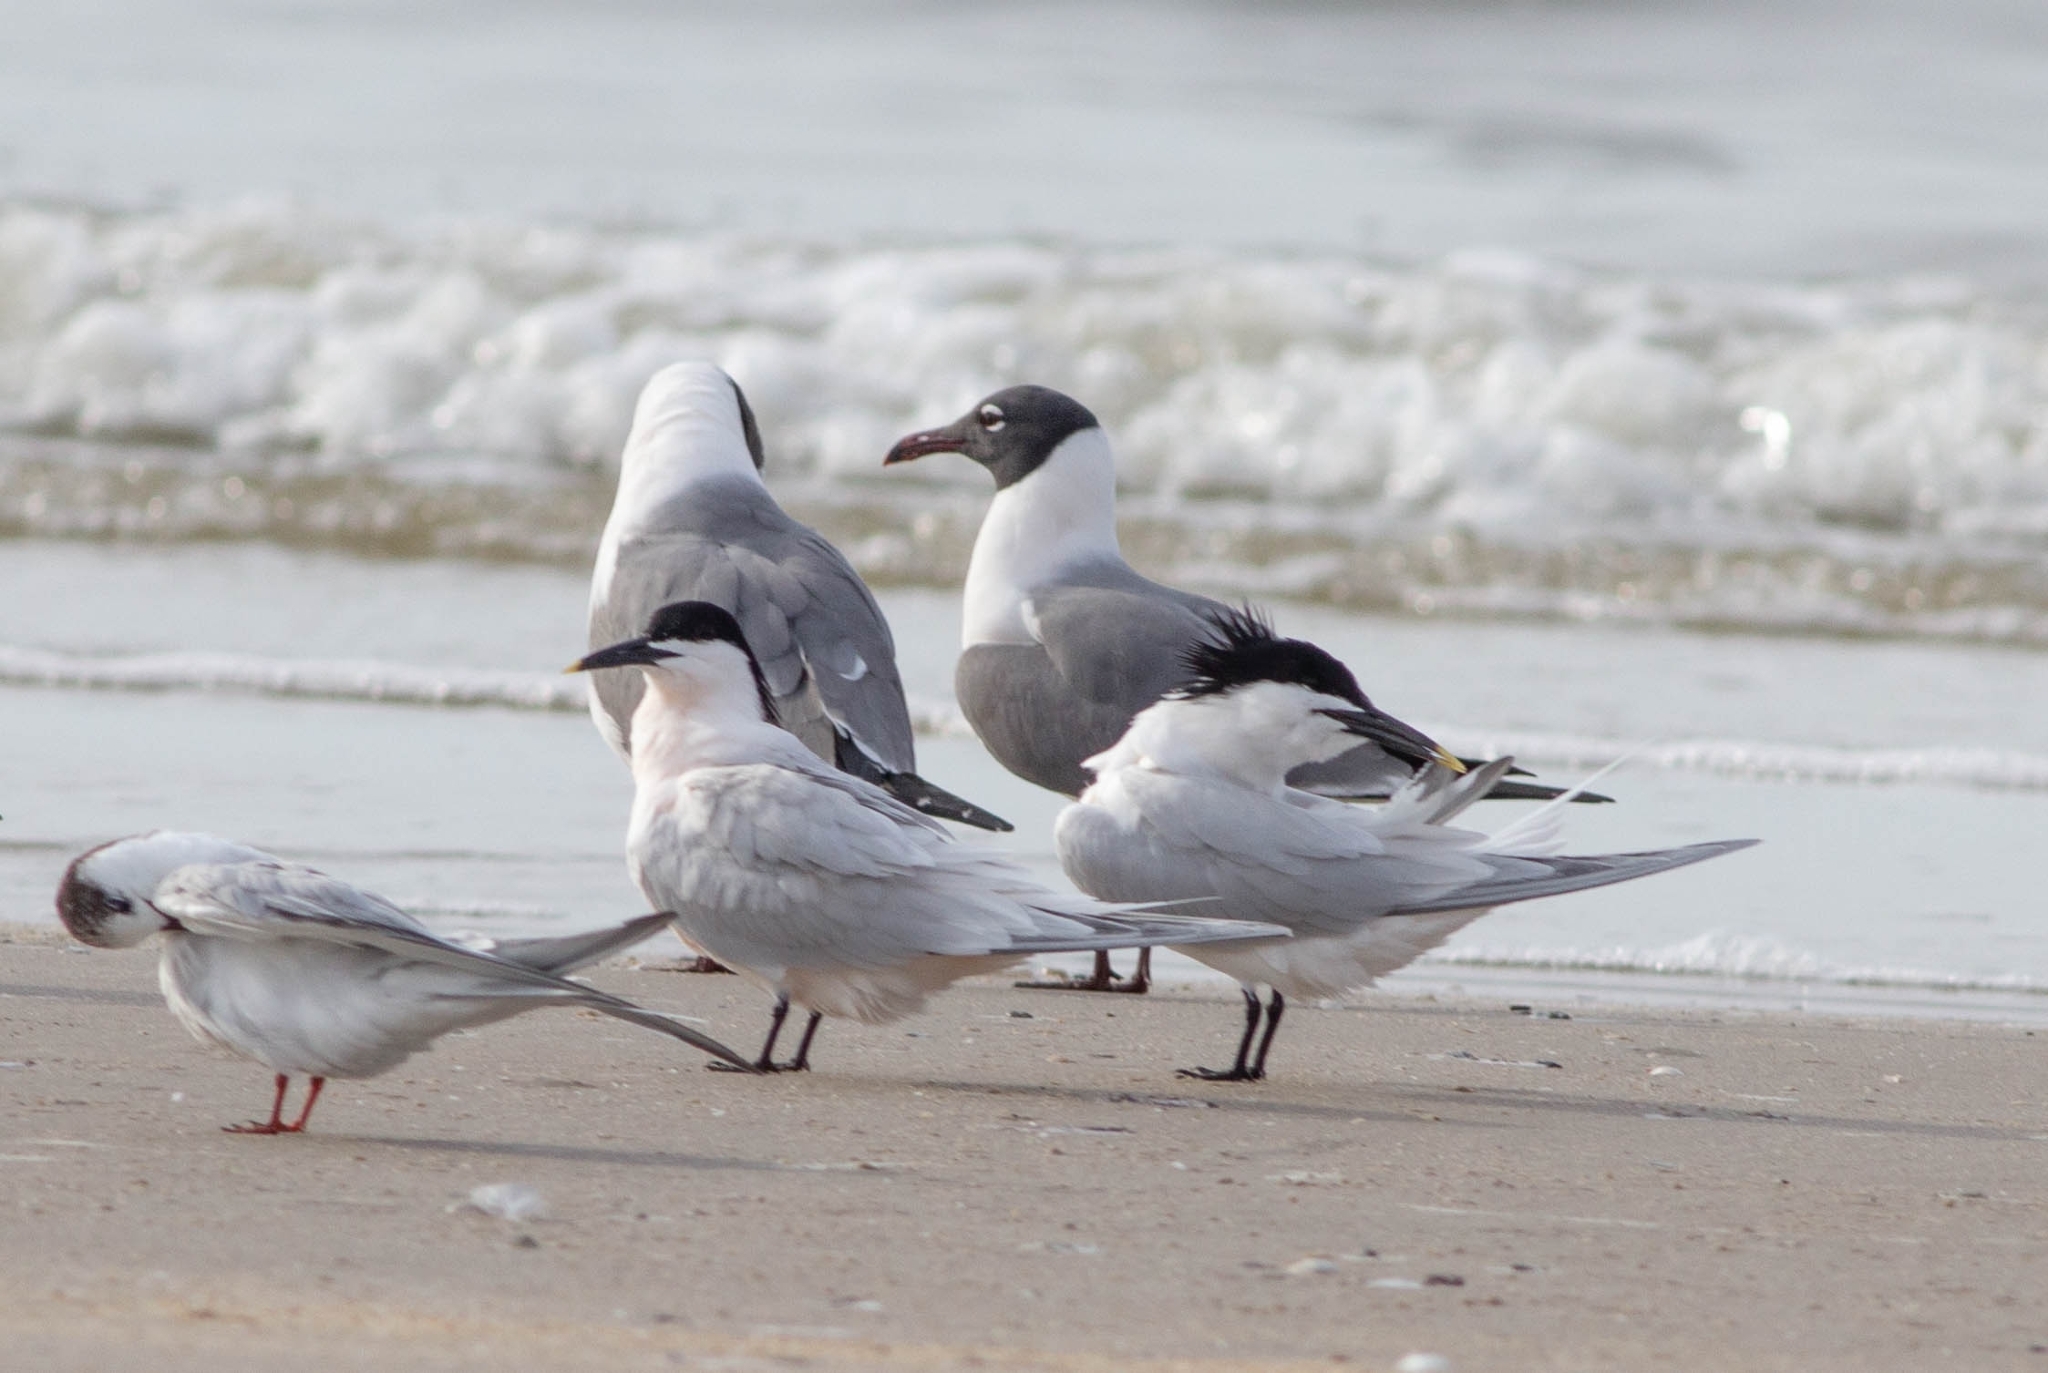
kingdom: Animalia
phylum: Chordata
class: Aves
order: Charadriiformes
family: Laridae
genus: Thalasseus
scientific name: Thalasseus sandvicensis
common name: Sandwich tern
